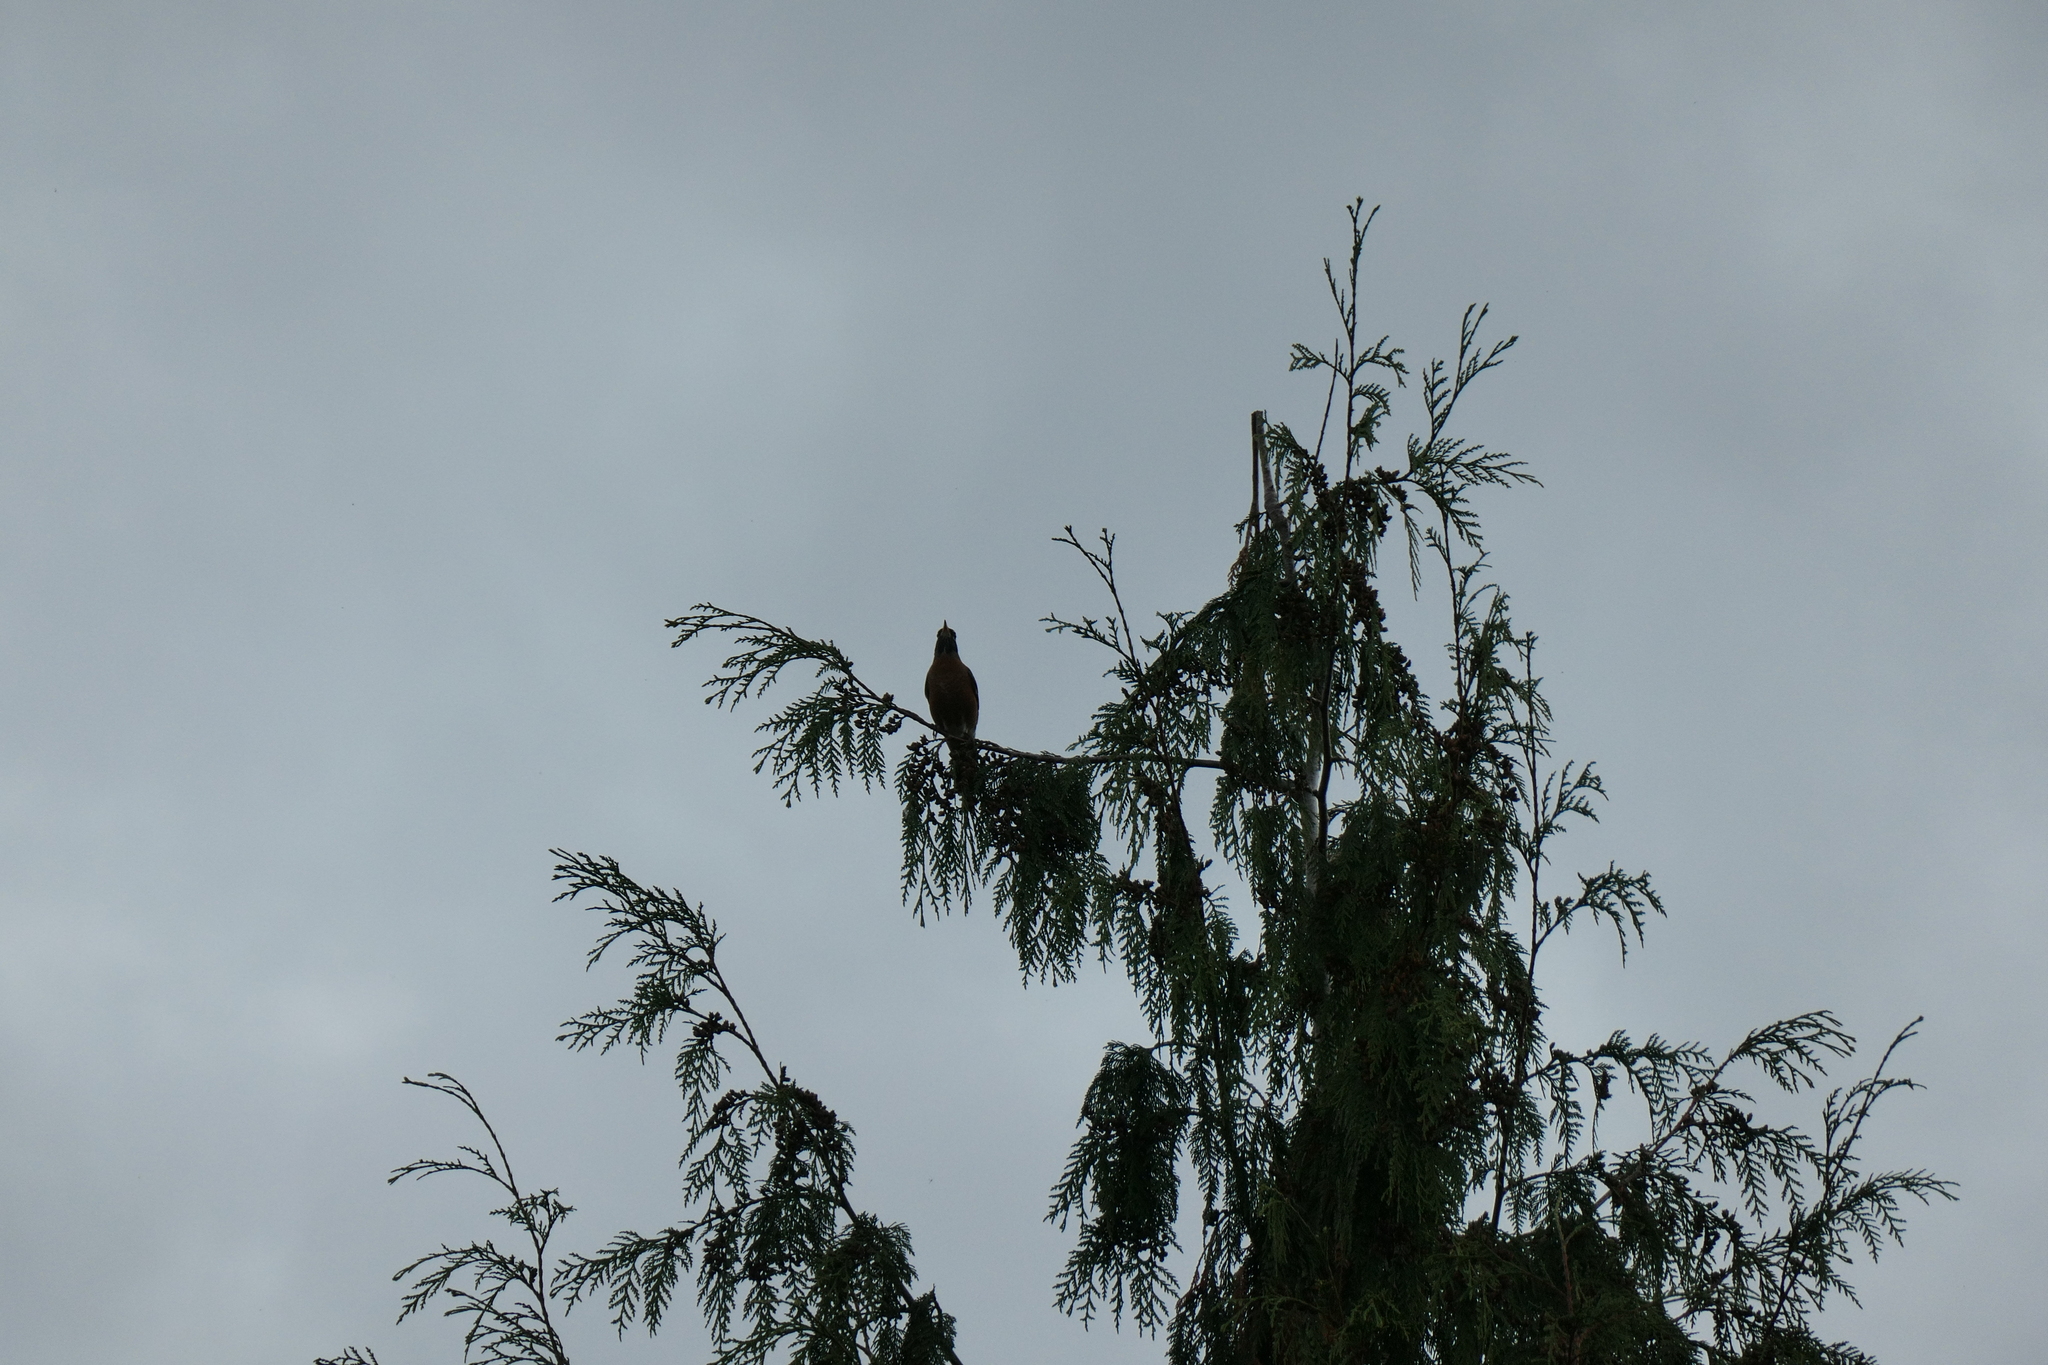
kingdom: Animalia
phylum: Chordata
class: Aves
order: Passeriformes
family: Turdidae
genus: Turdus
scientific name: Turdus migratorius
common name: American robin
